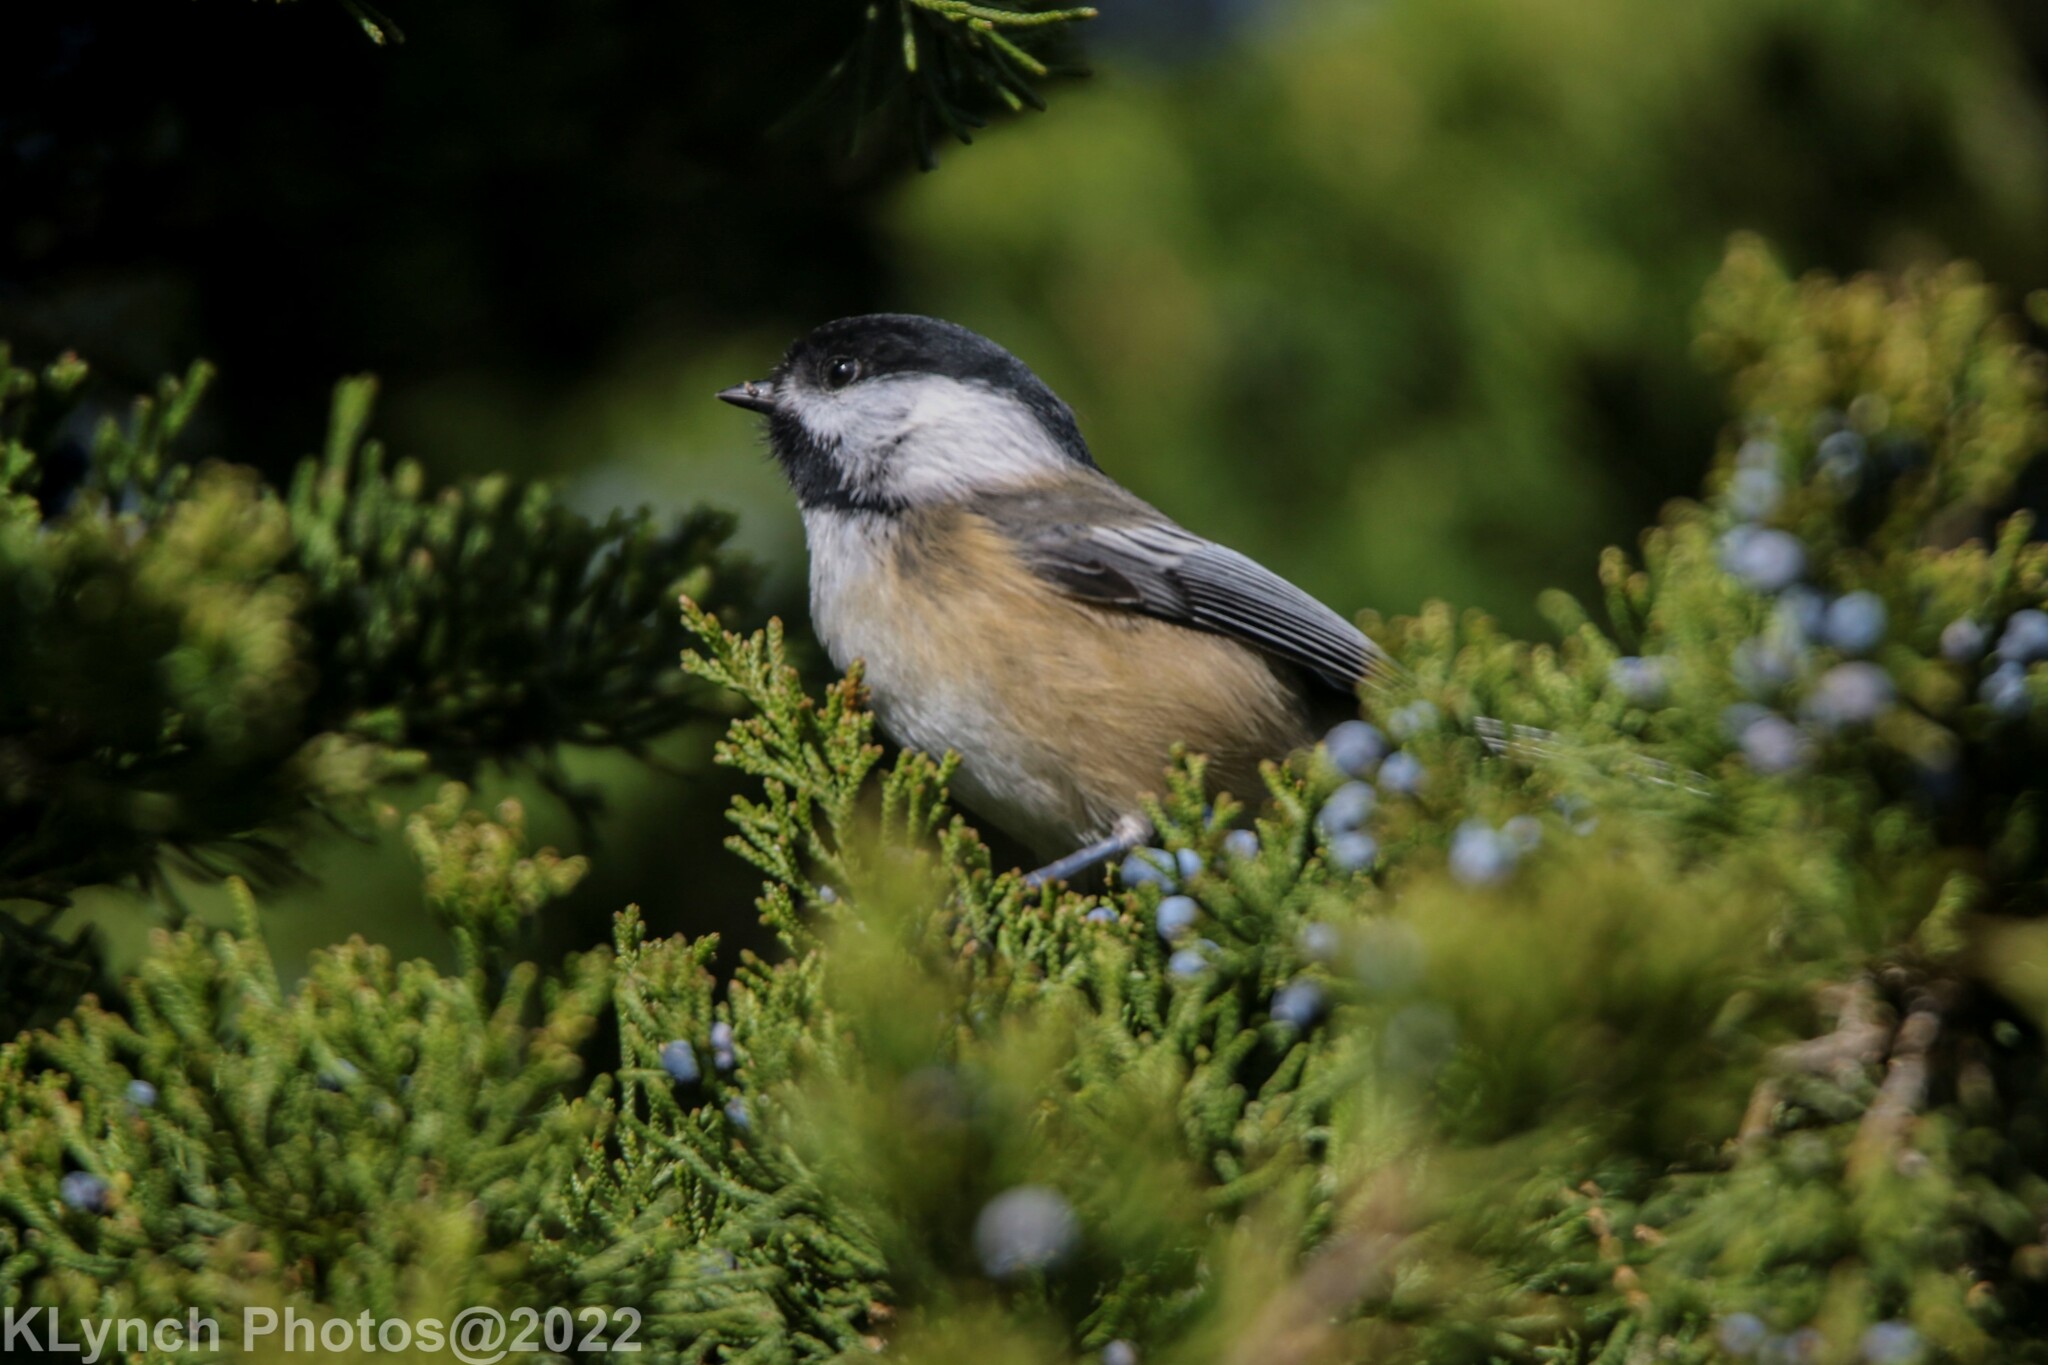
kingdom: Animalia
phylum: Chordata
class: Aves
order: Passeriformes
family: Paridae
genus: Poecile
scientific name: Poecile atricapillus
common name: Black-capped chickadee
